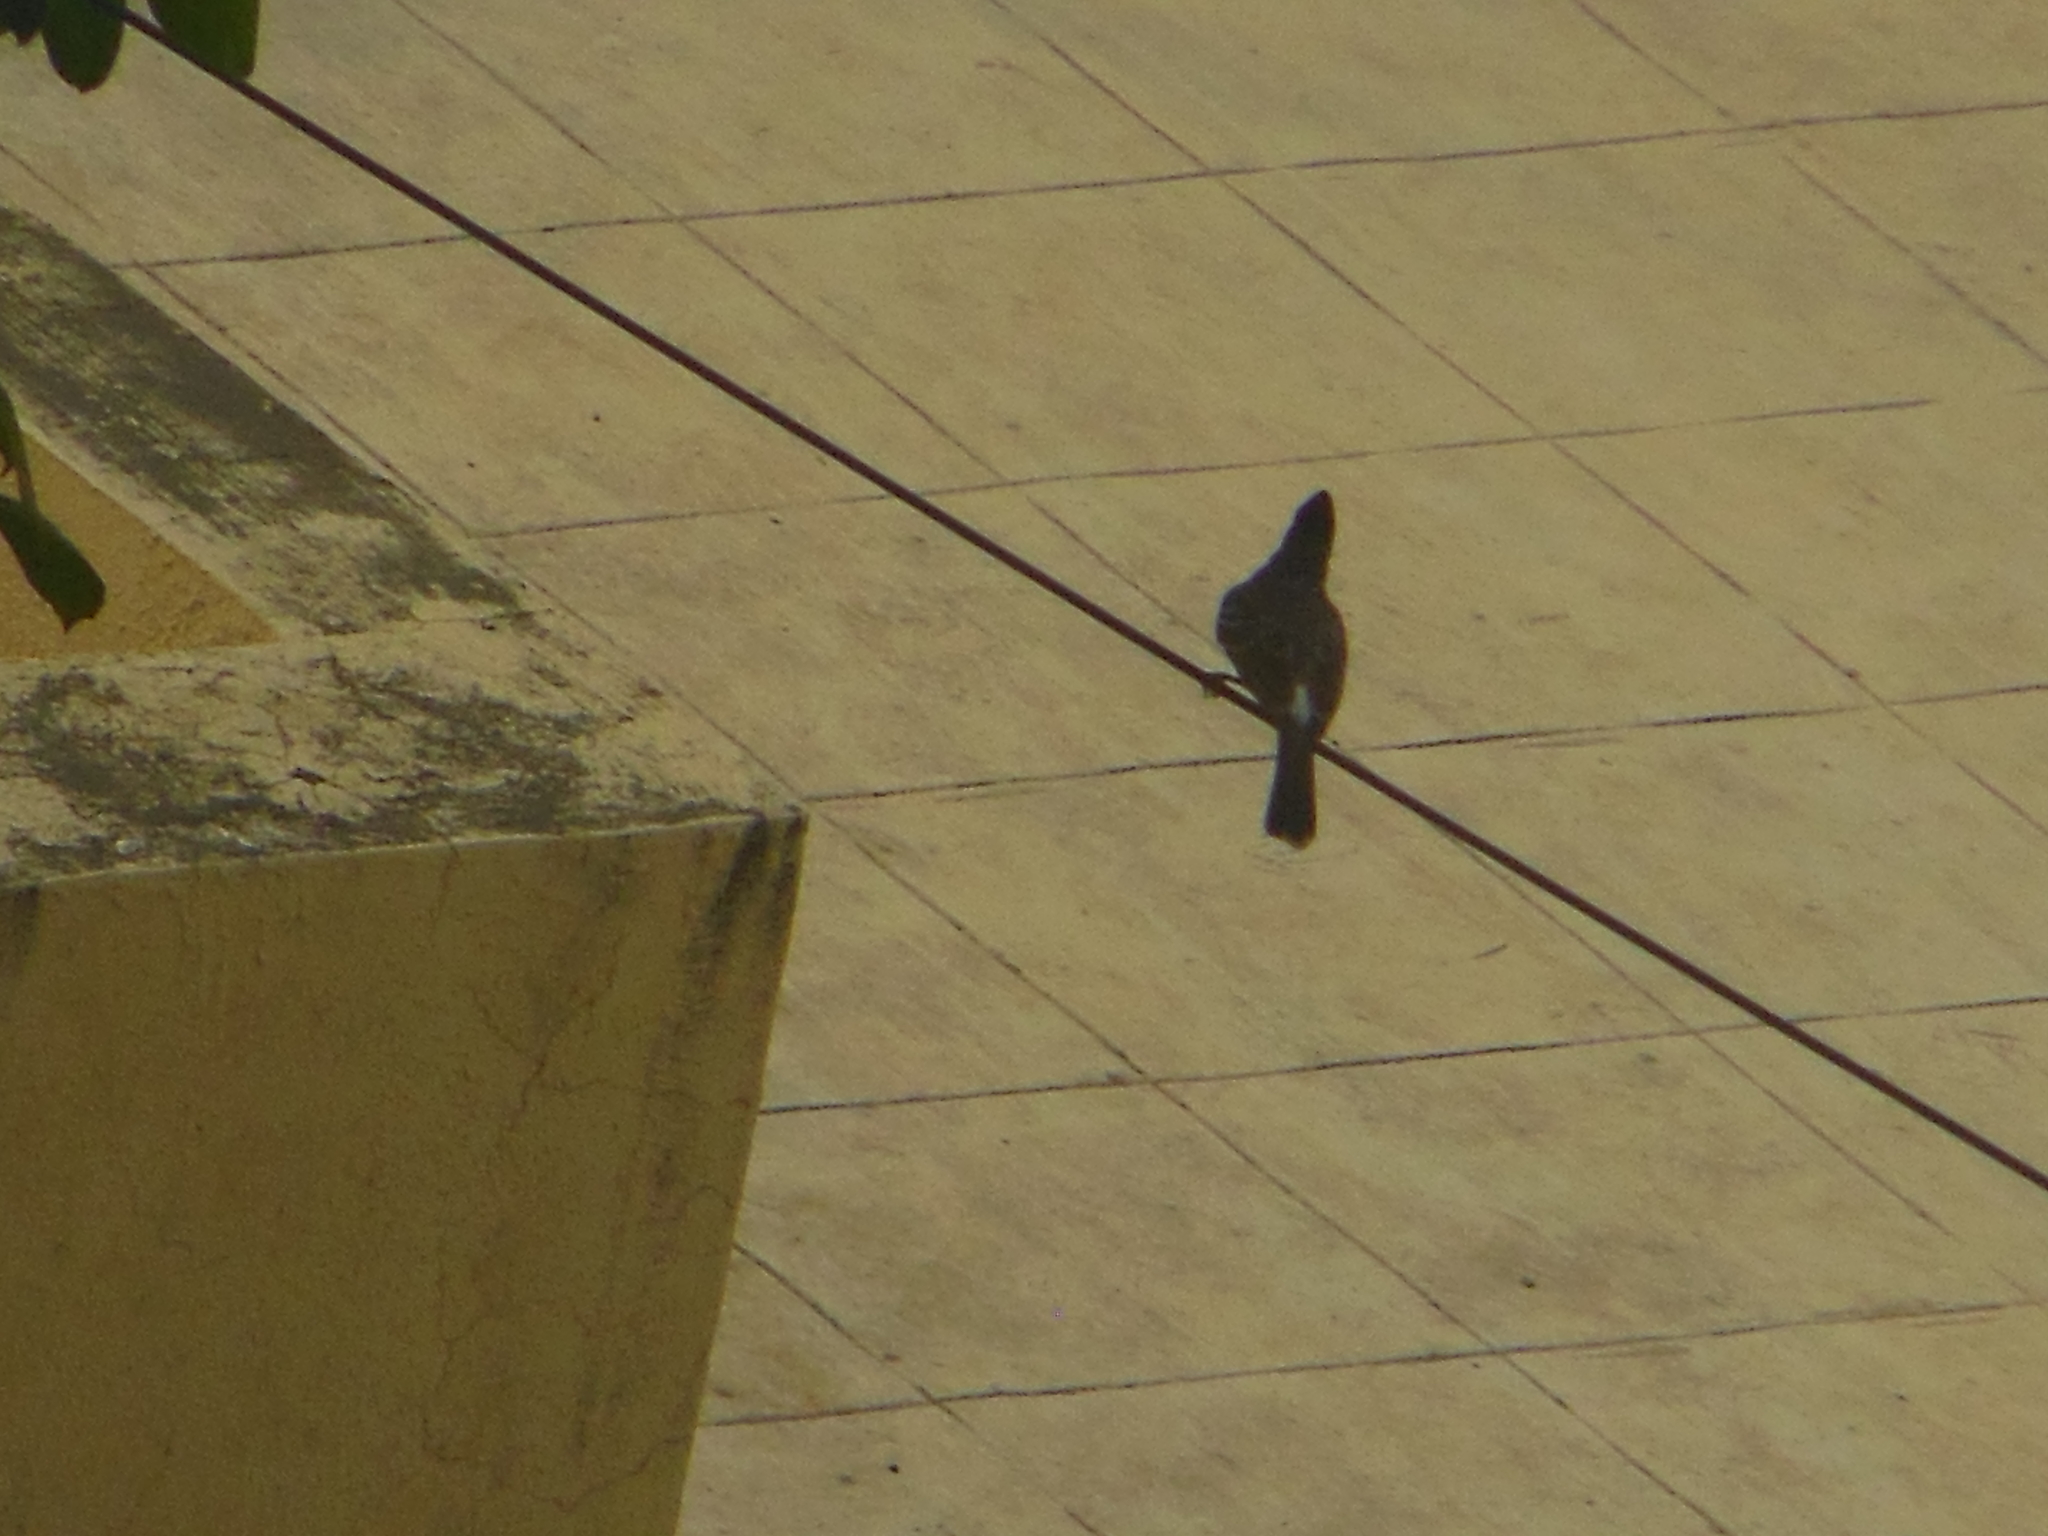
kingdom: Animalia
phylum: Chordata
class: Aves
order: Passeriformes
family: Pycnonotidae
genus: Pycnonotus
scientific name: Pycnonotus cafer
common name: Red-vented bulbul
